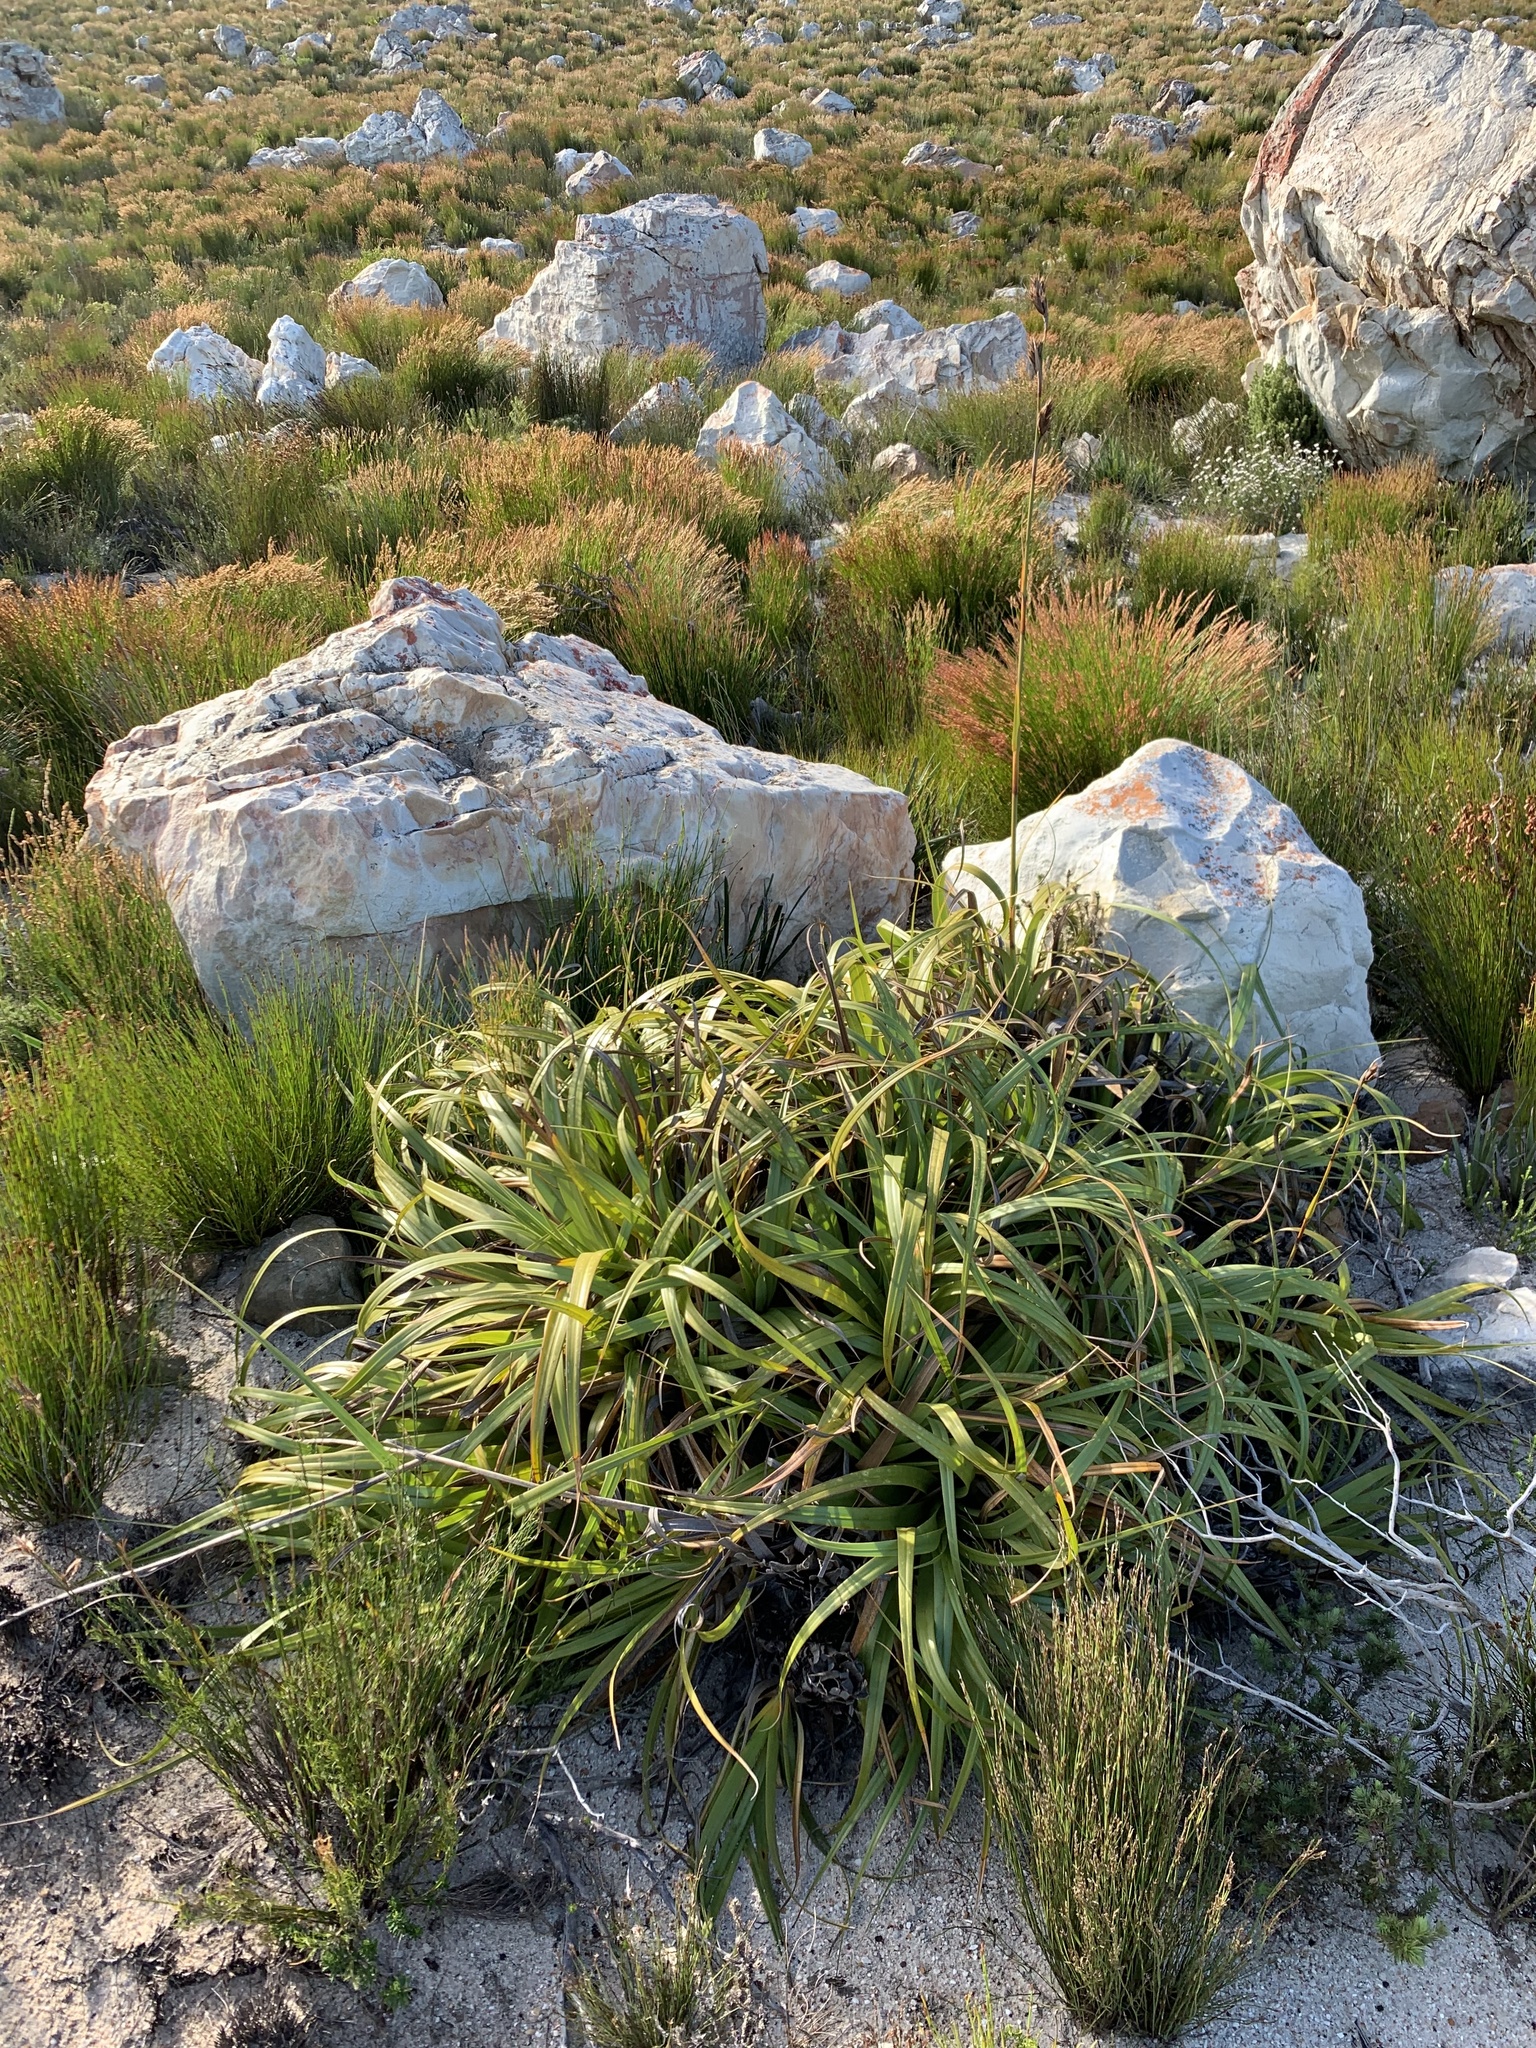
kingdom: Plantae
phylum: Tracheophyta
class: Liliopsida
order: Poales
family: Cyperaceae
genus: Tetraria
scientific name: Tetraria thermalis
